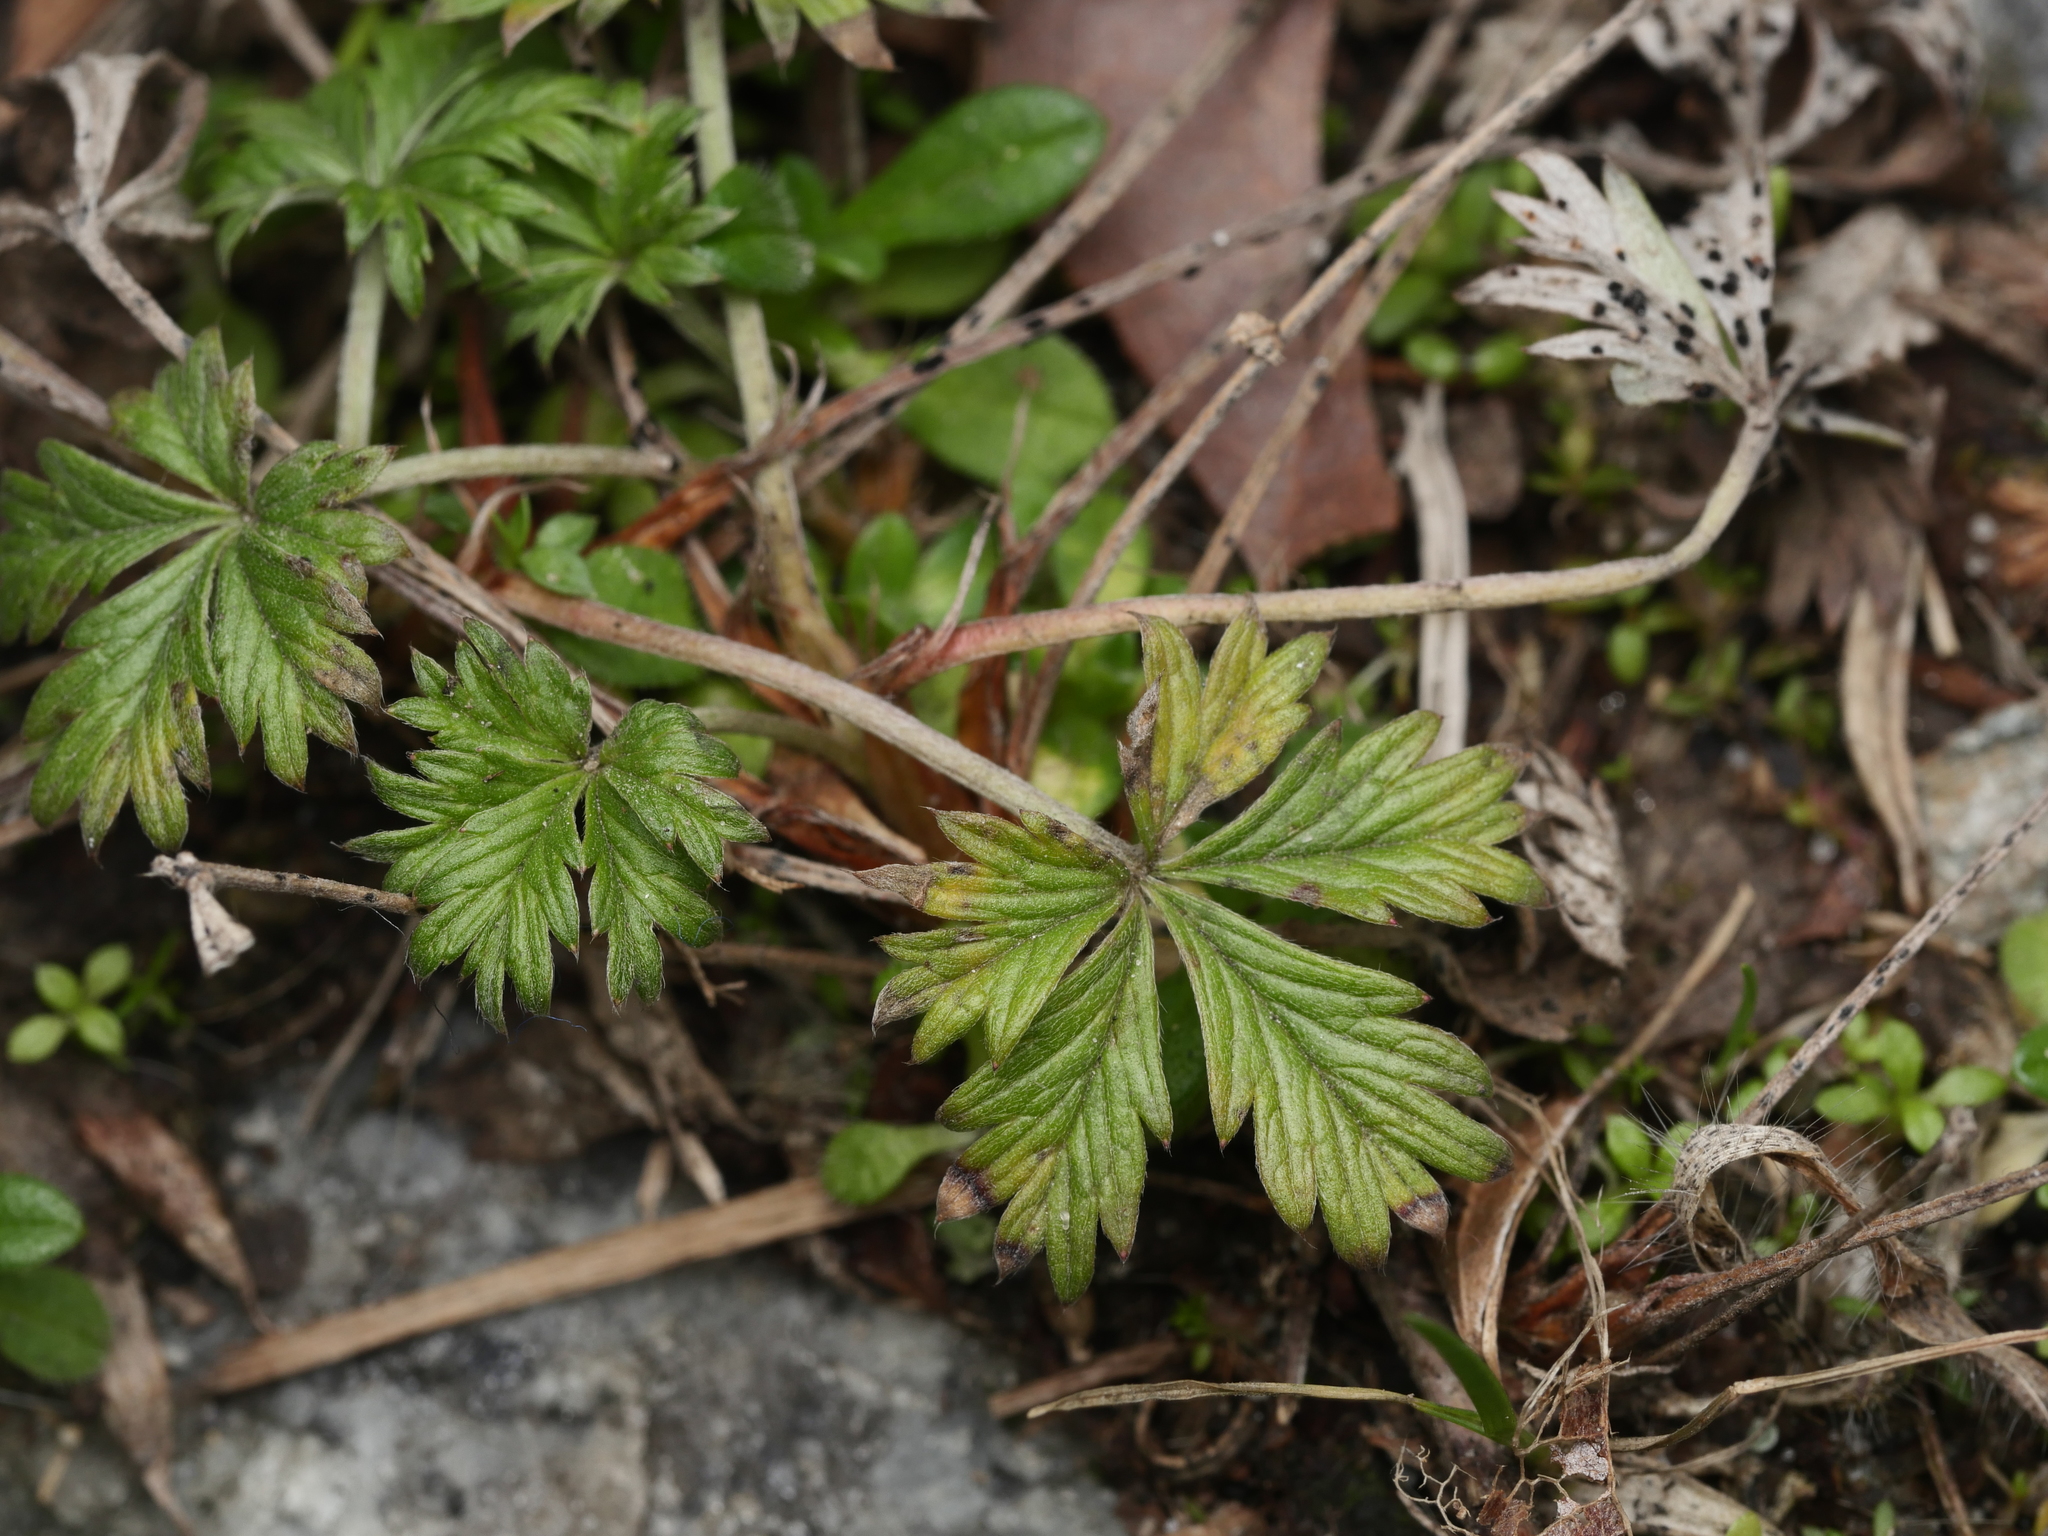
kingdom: Plantae
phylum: Tracheophyta
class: Magnoliopsida
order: Rosales
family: Rosaceae
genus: Potentilla
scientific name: Potentilla argentea
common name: Hoary cinquefoil
